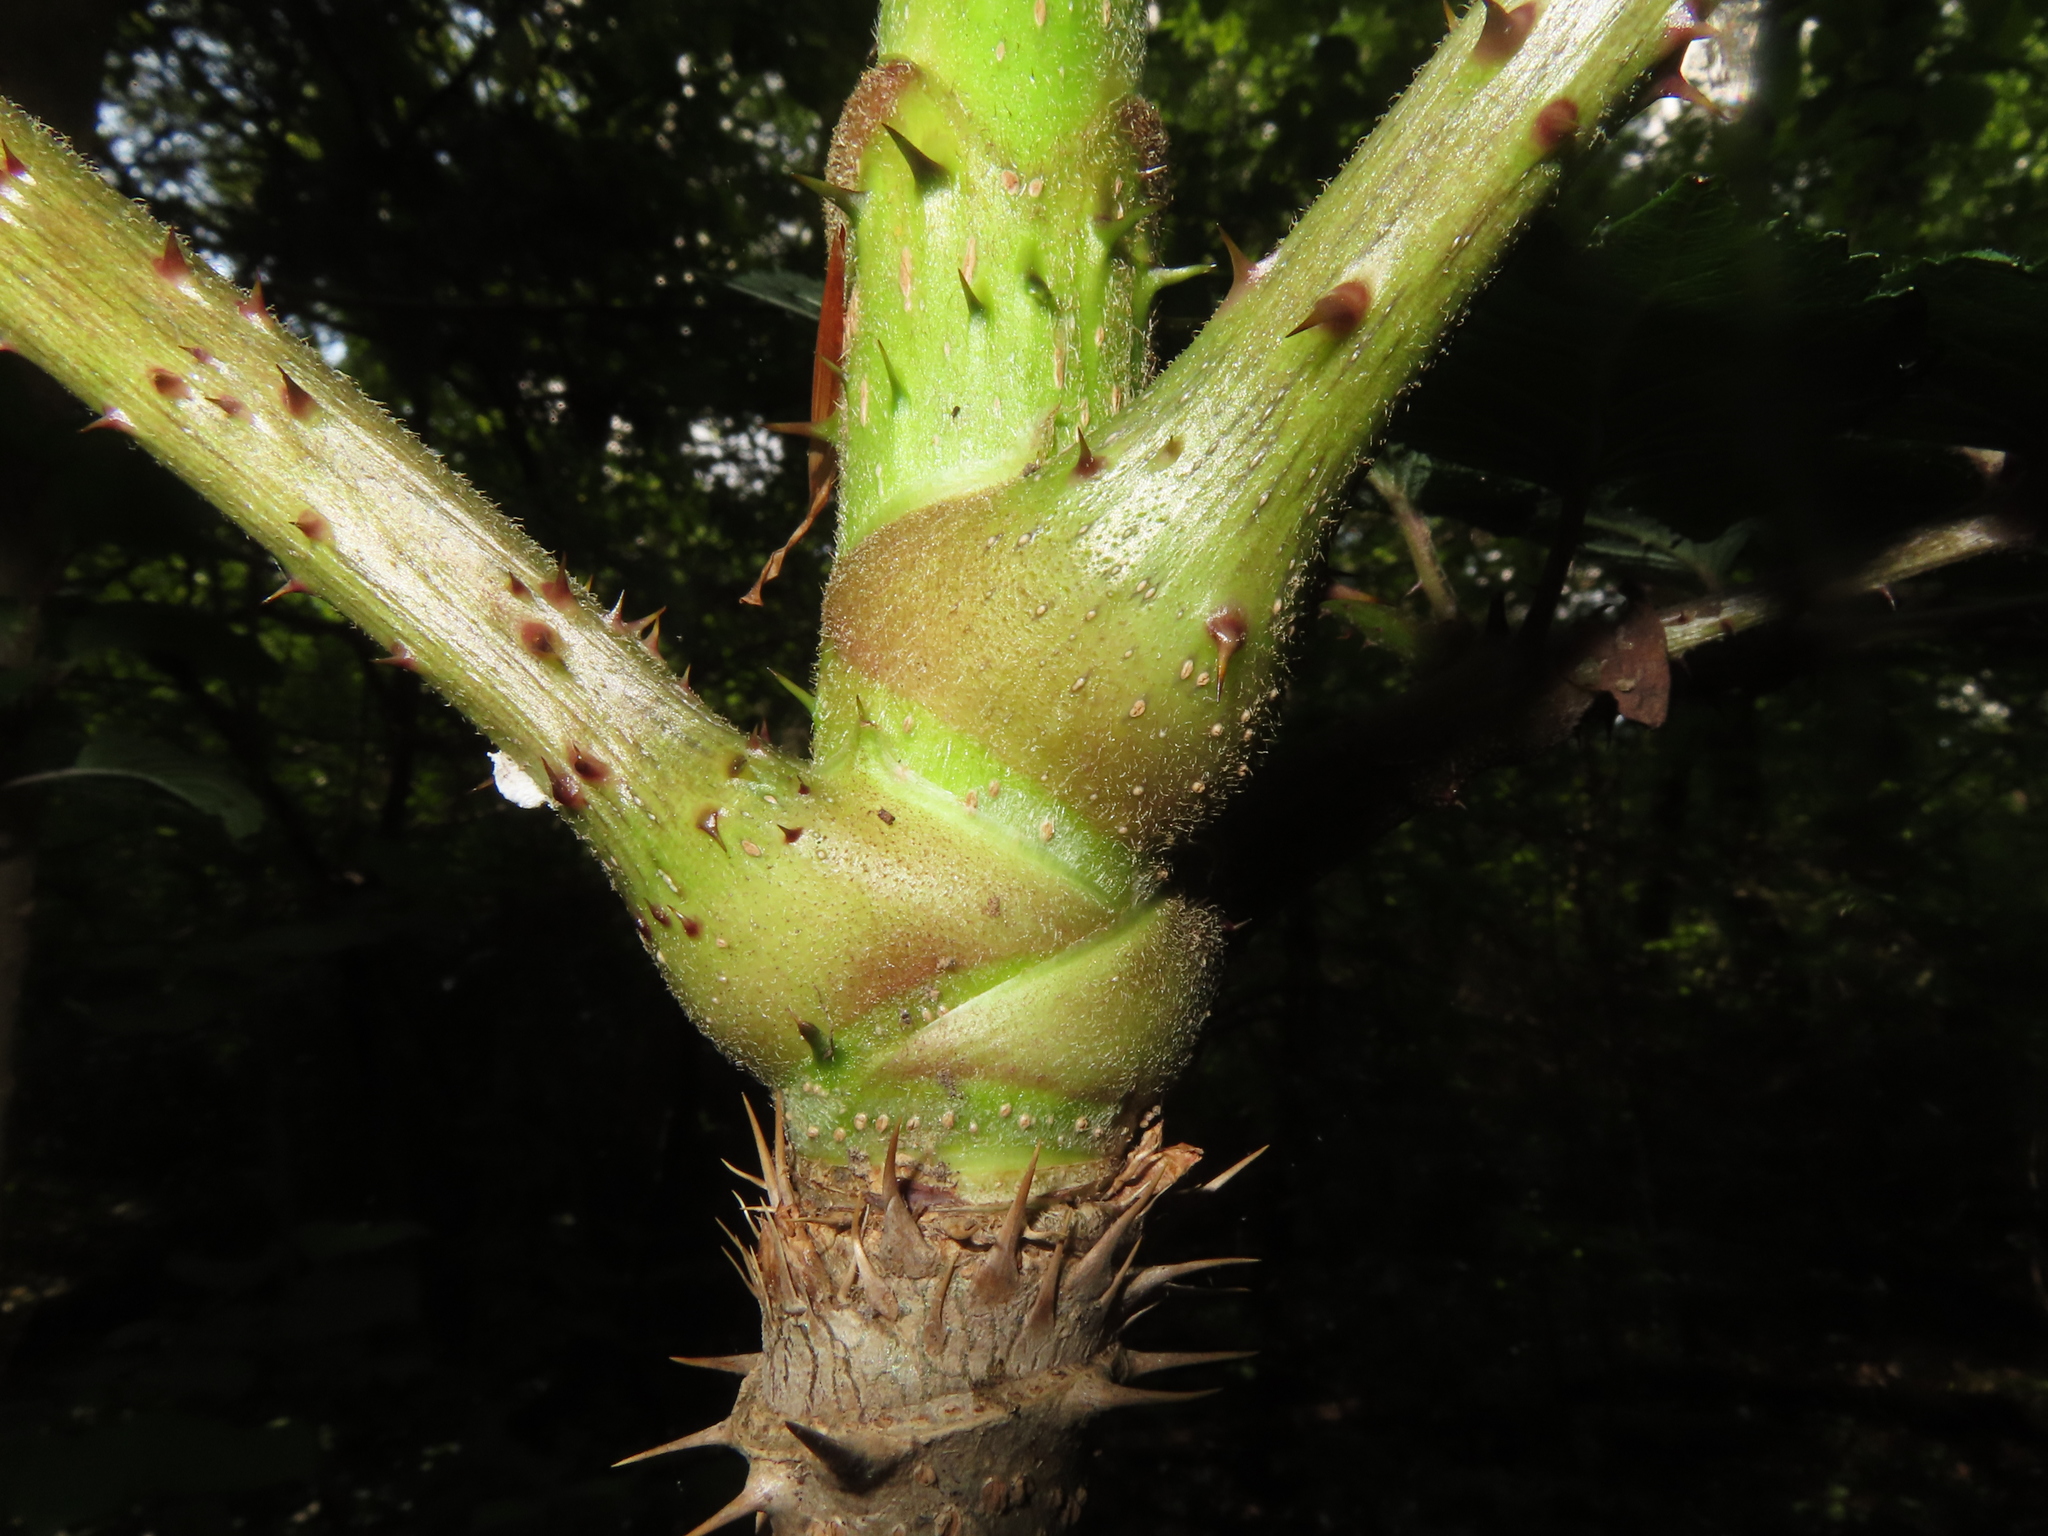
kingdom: Plantae
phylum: Tracheophyta
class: Magnoliopsida
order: Apiales
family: Araliaceae
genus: Aralia
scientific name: Aralia elata
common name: Japanese angelica-tree
